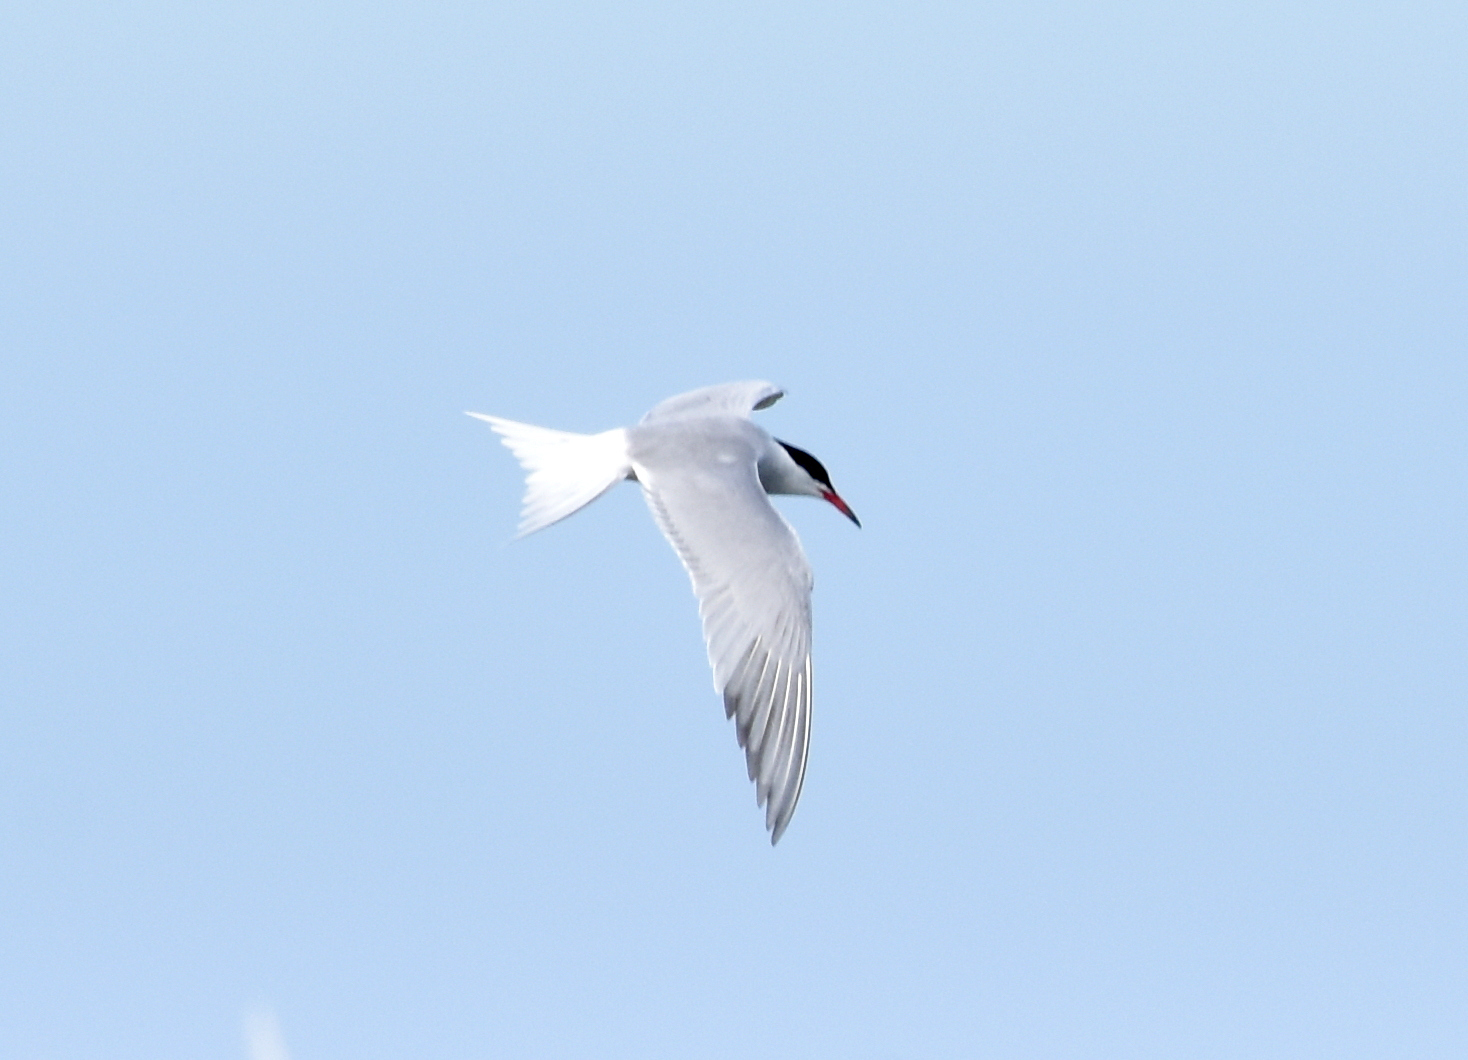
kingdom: Animalia
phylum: Chordata
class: Aves
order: Charadriiformes
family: Laridae
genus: Sterna
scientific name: Sterna hirundo
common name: Common tern
